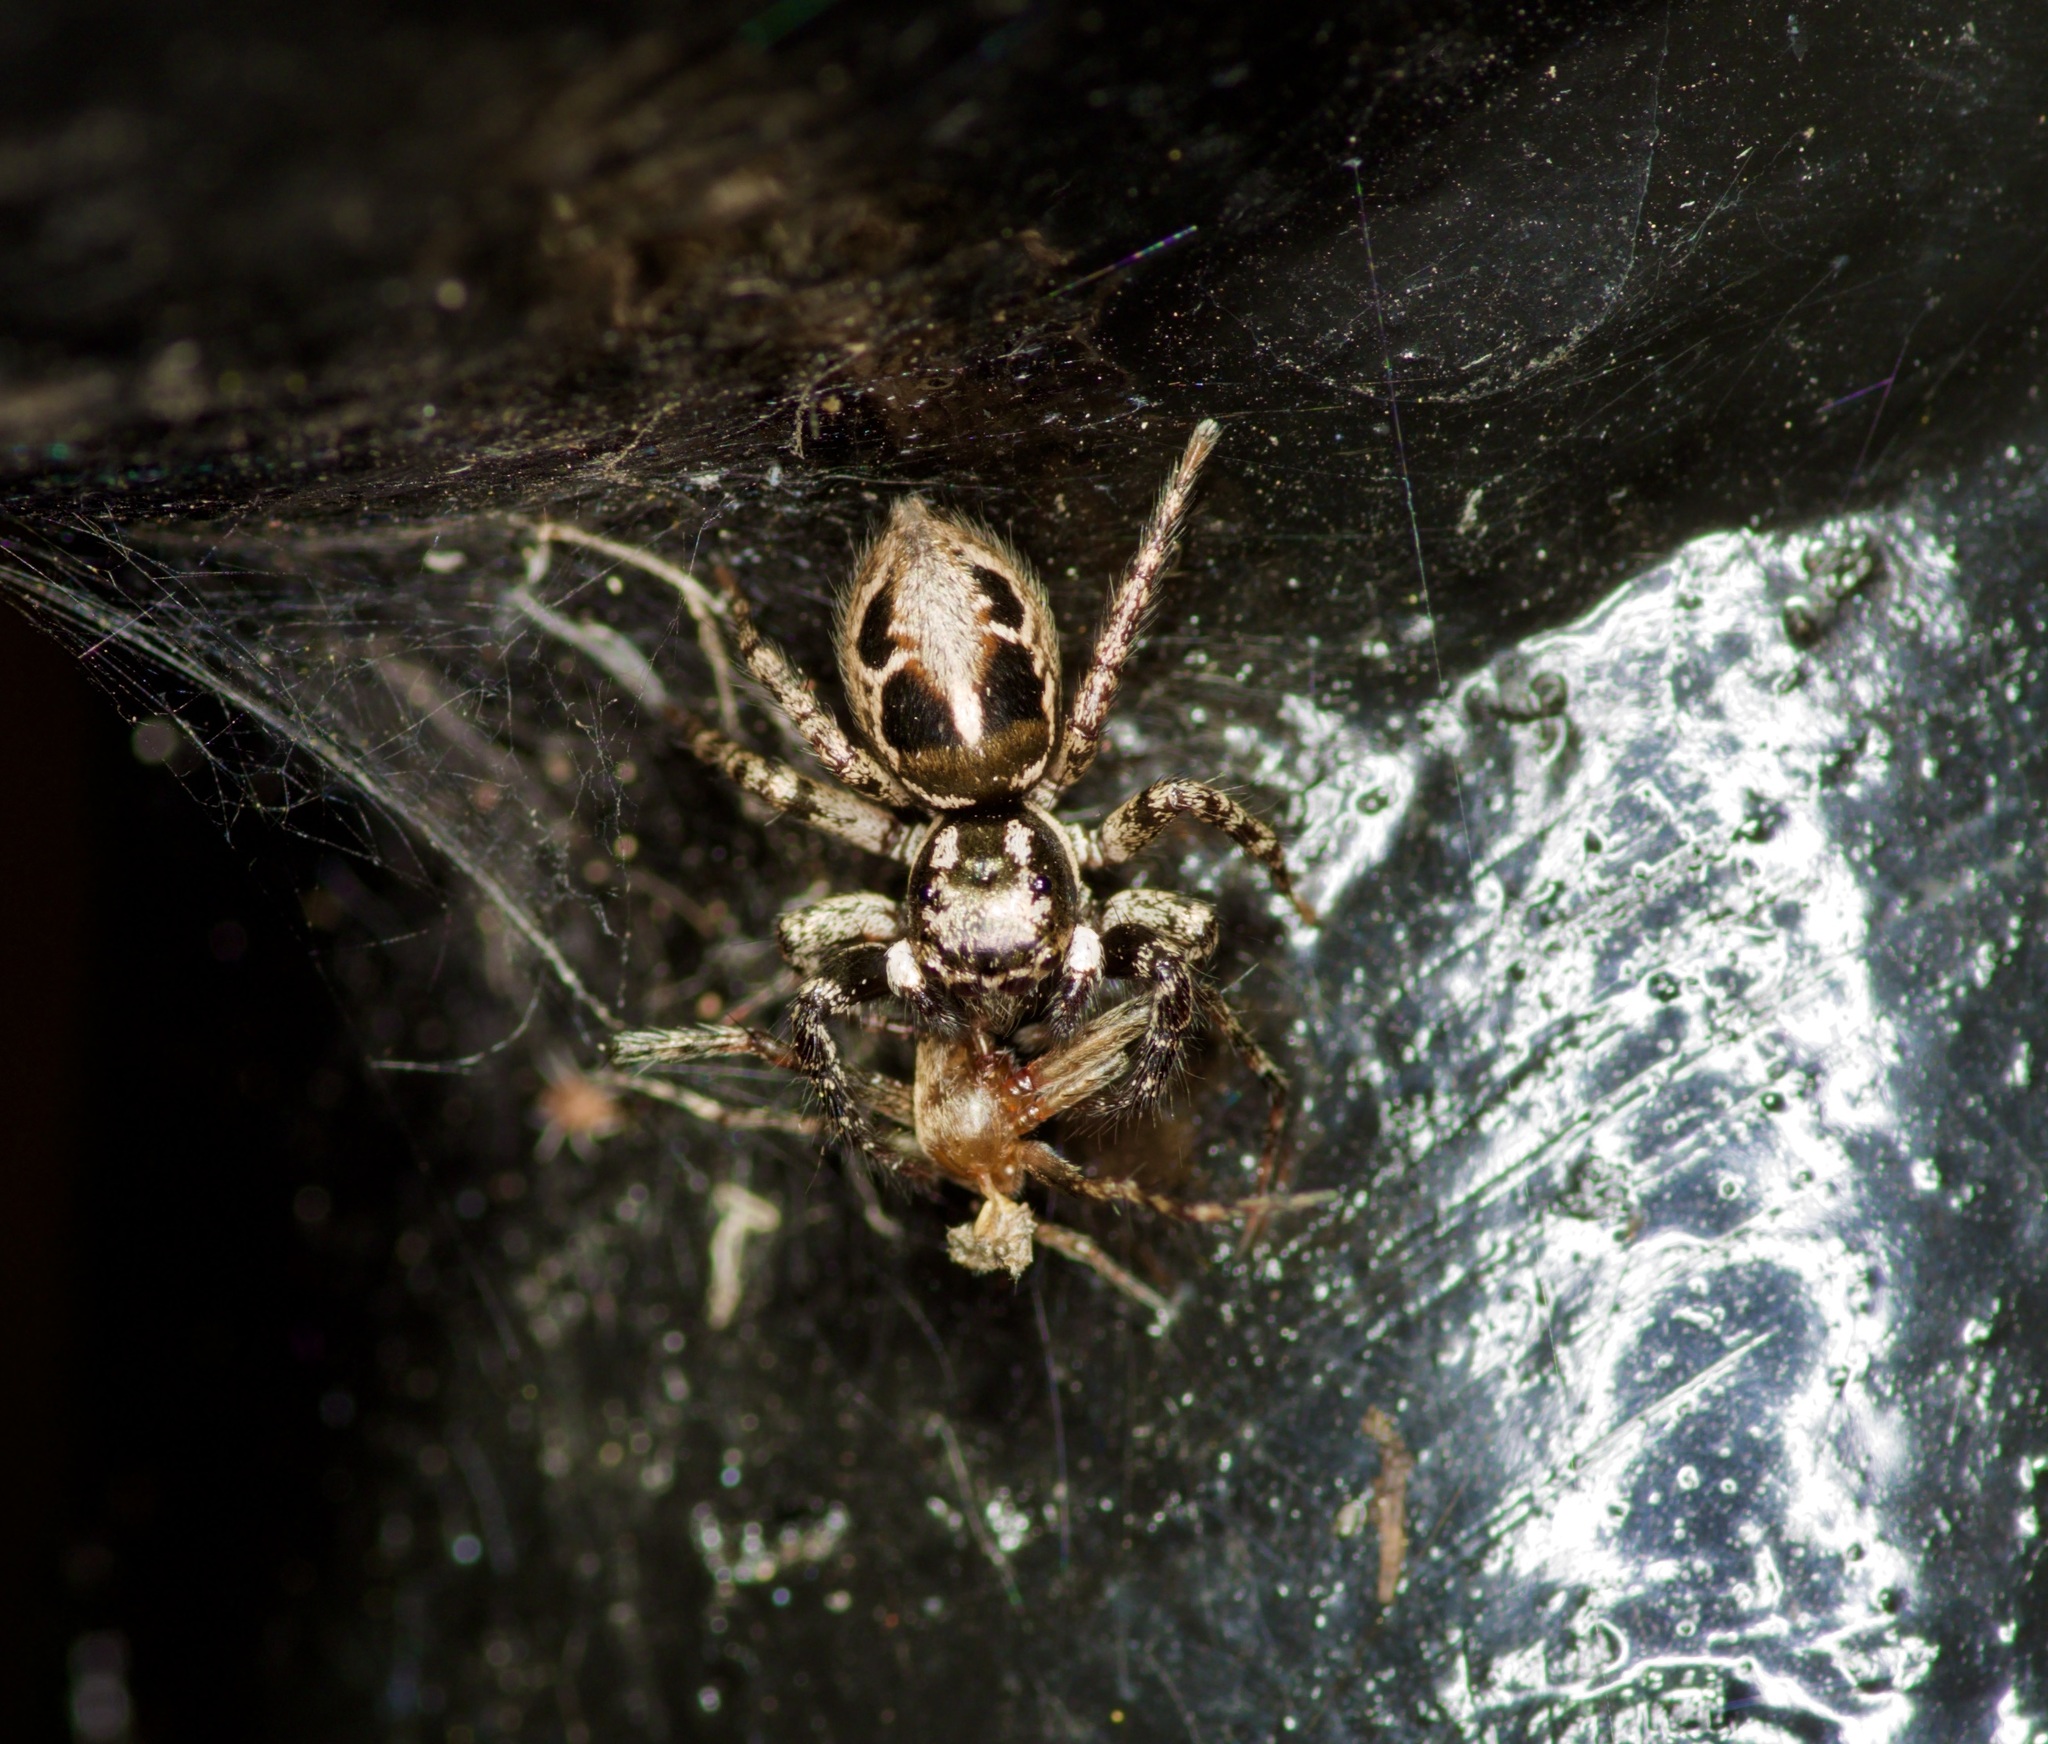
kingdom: Animalia
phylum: Arthropoda
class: Arachnida
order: Araneae
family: Salticidae
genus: Anasaitis
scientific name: Anasaitis canosa
